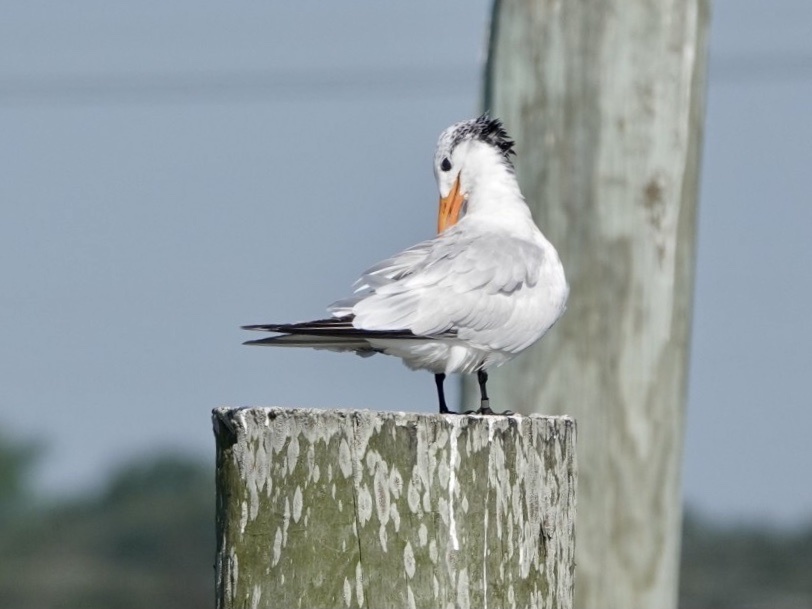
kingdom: Animalia
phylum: Chordata
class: Aves
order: Charadriiformes
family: Laridae
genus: Thalasseus
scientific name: Thalasseus maximus
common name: Royal tern
